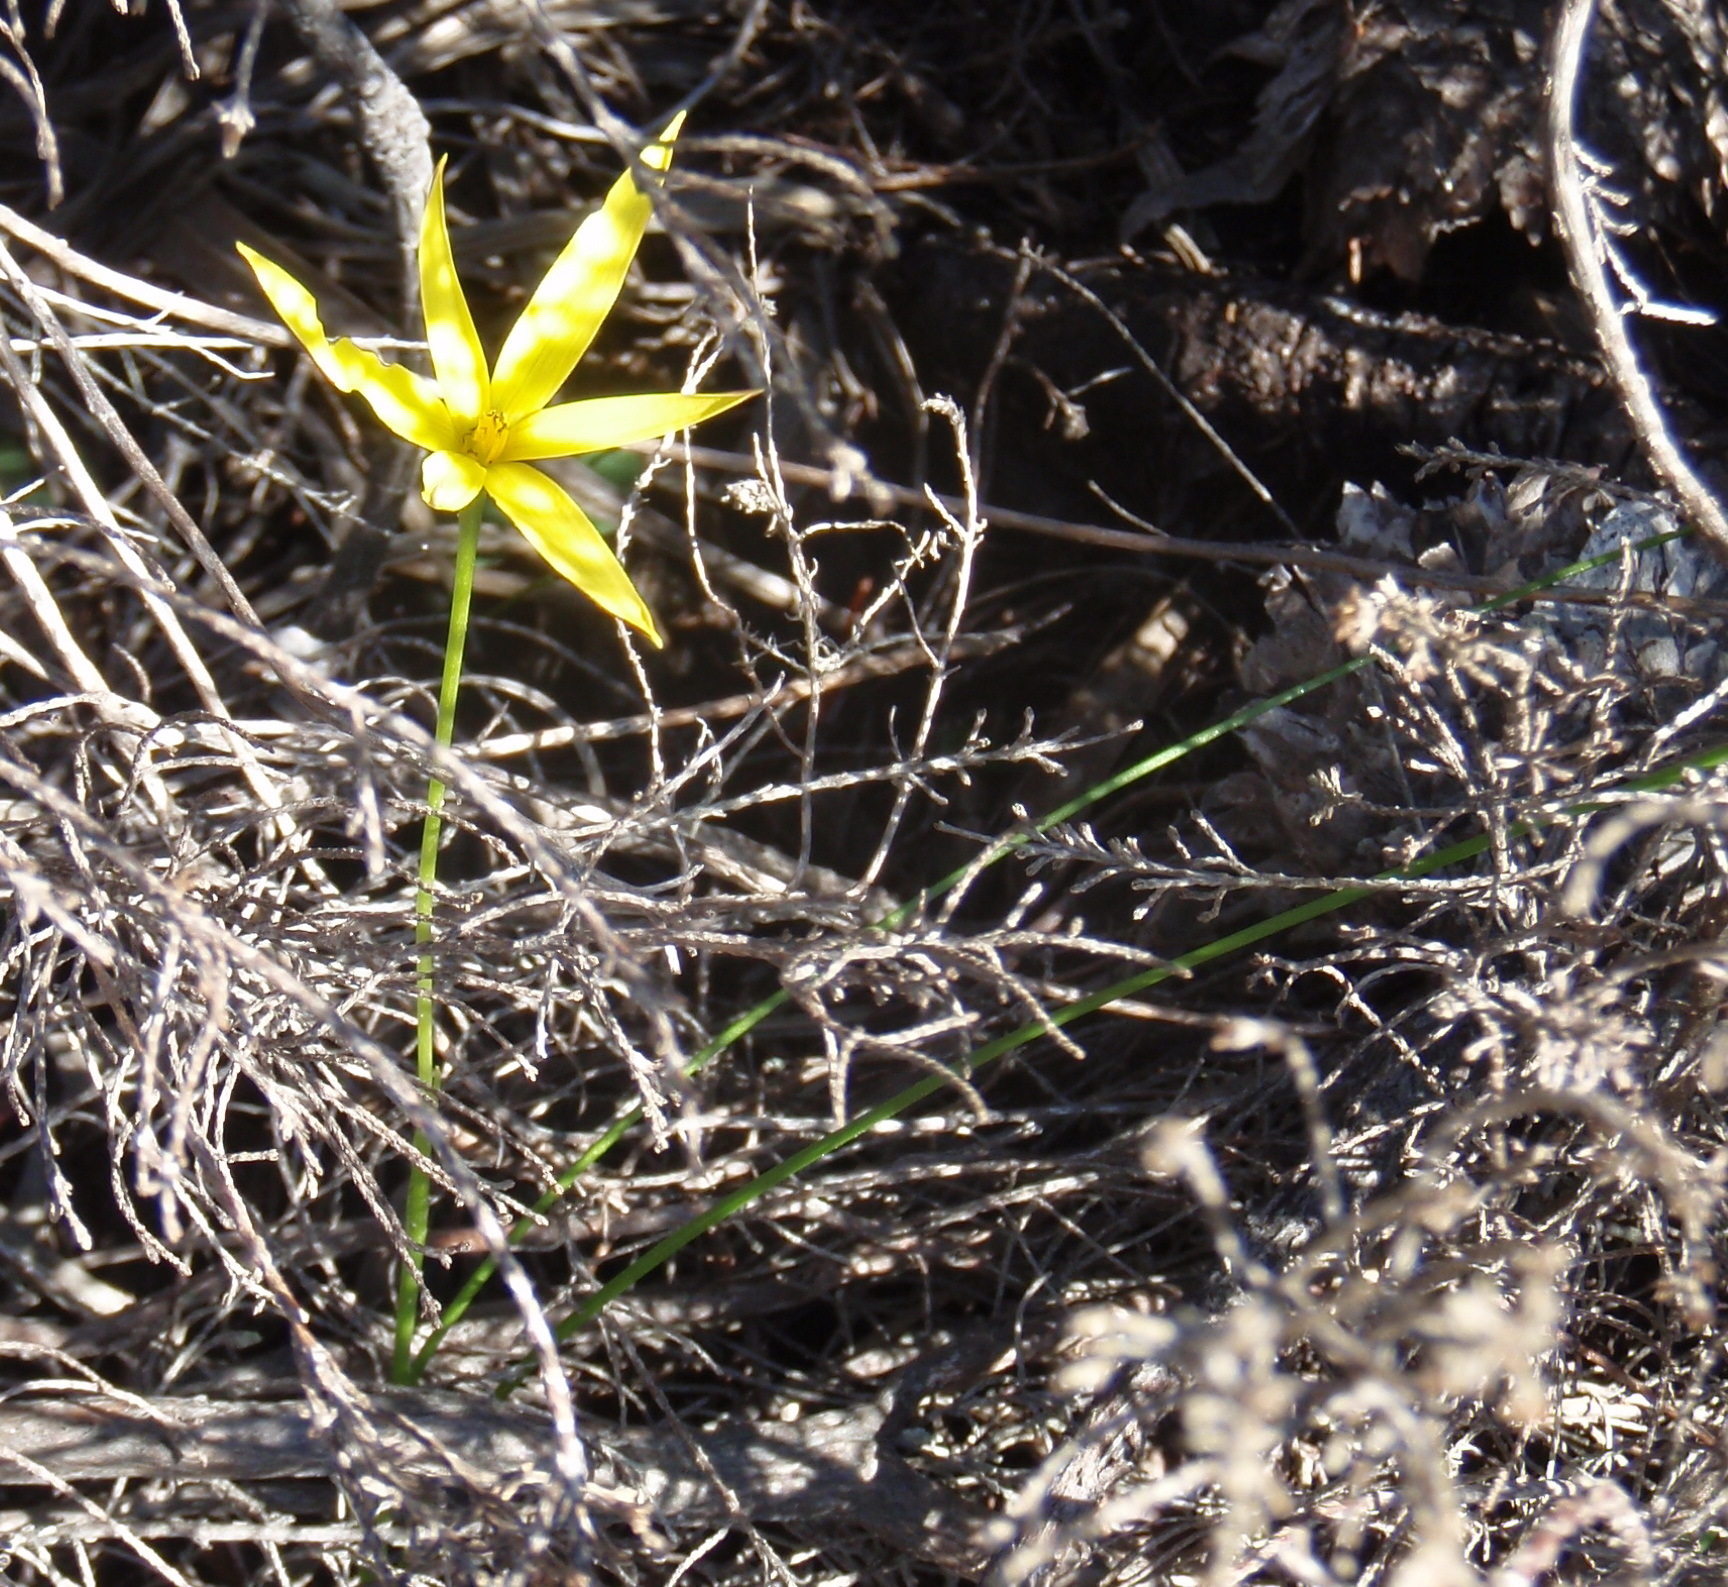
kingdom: Plantae
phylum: Tracheophyta
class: Liliopsida
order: Asparagales
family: Hypoxidaceae
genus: Pauridia
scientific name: Pauridia capensis
